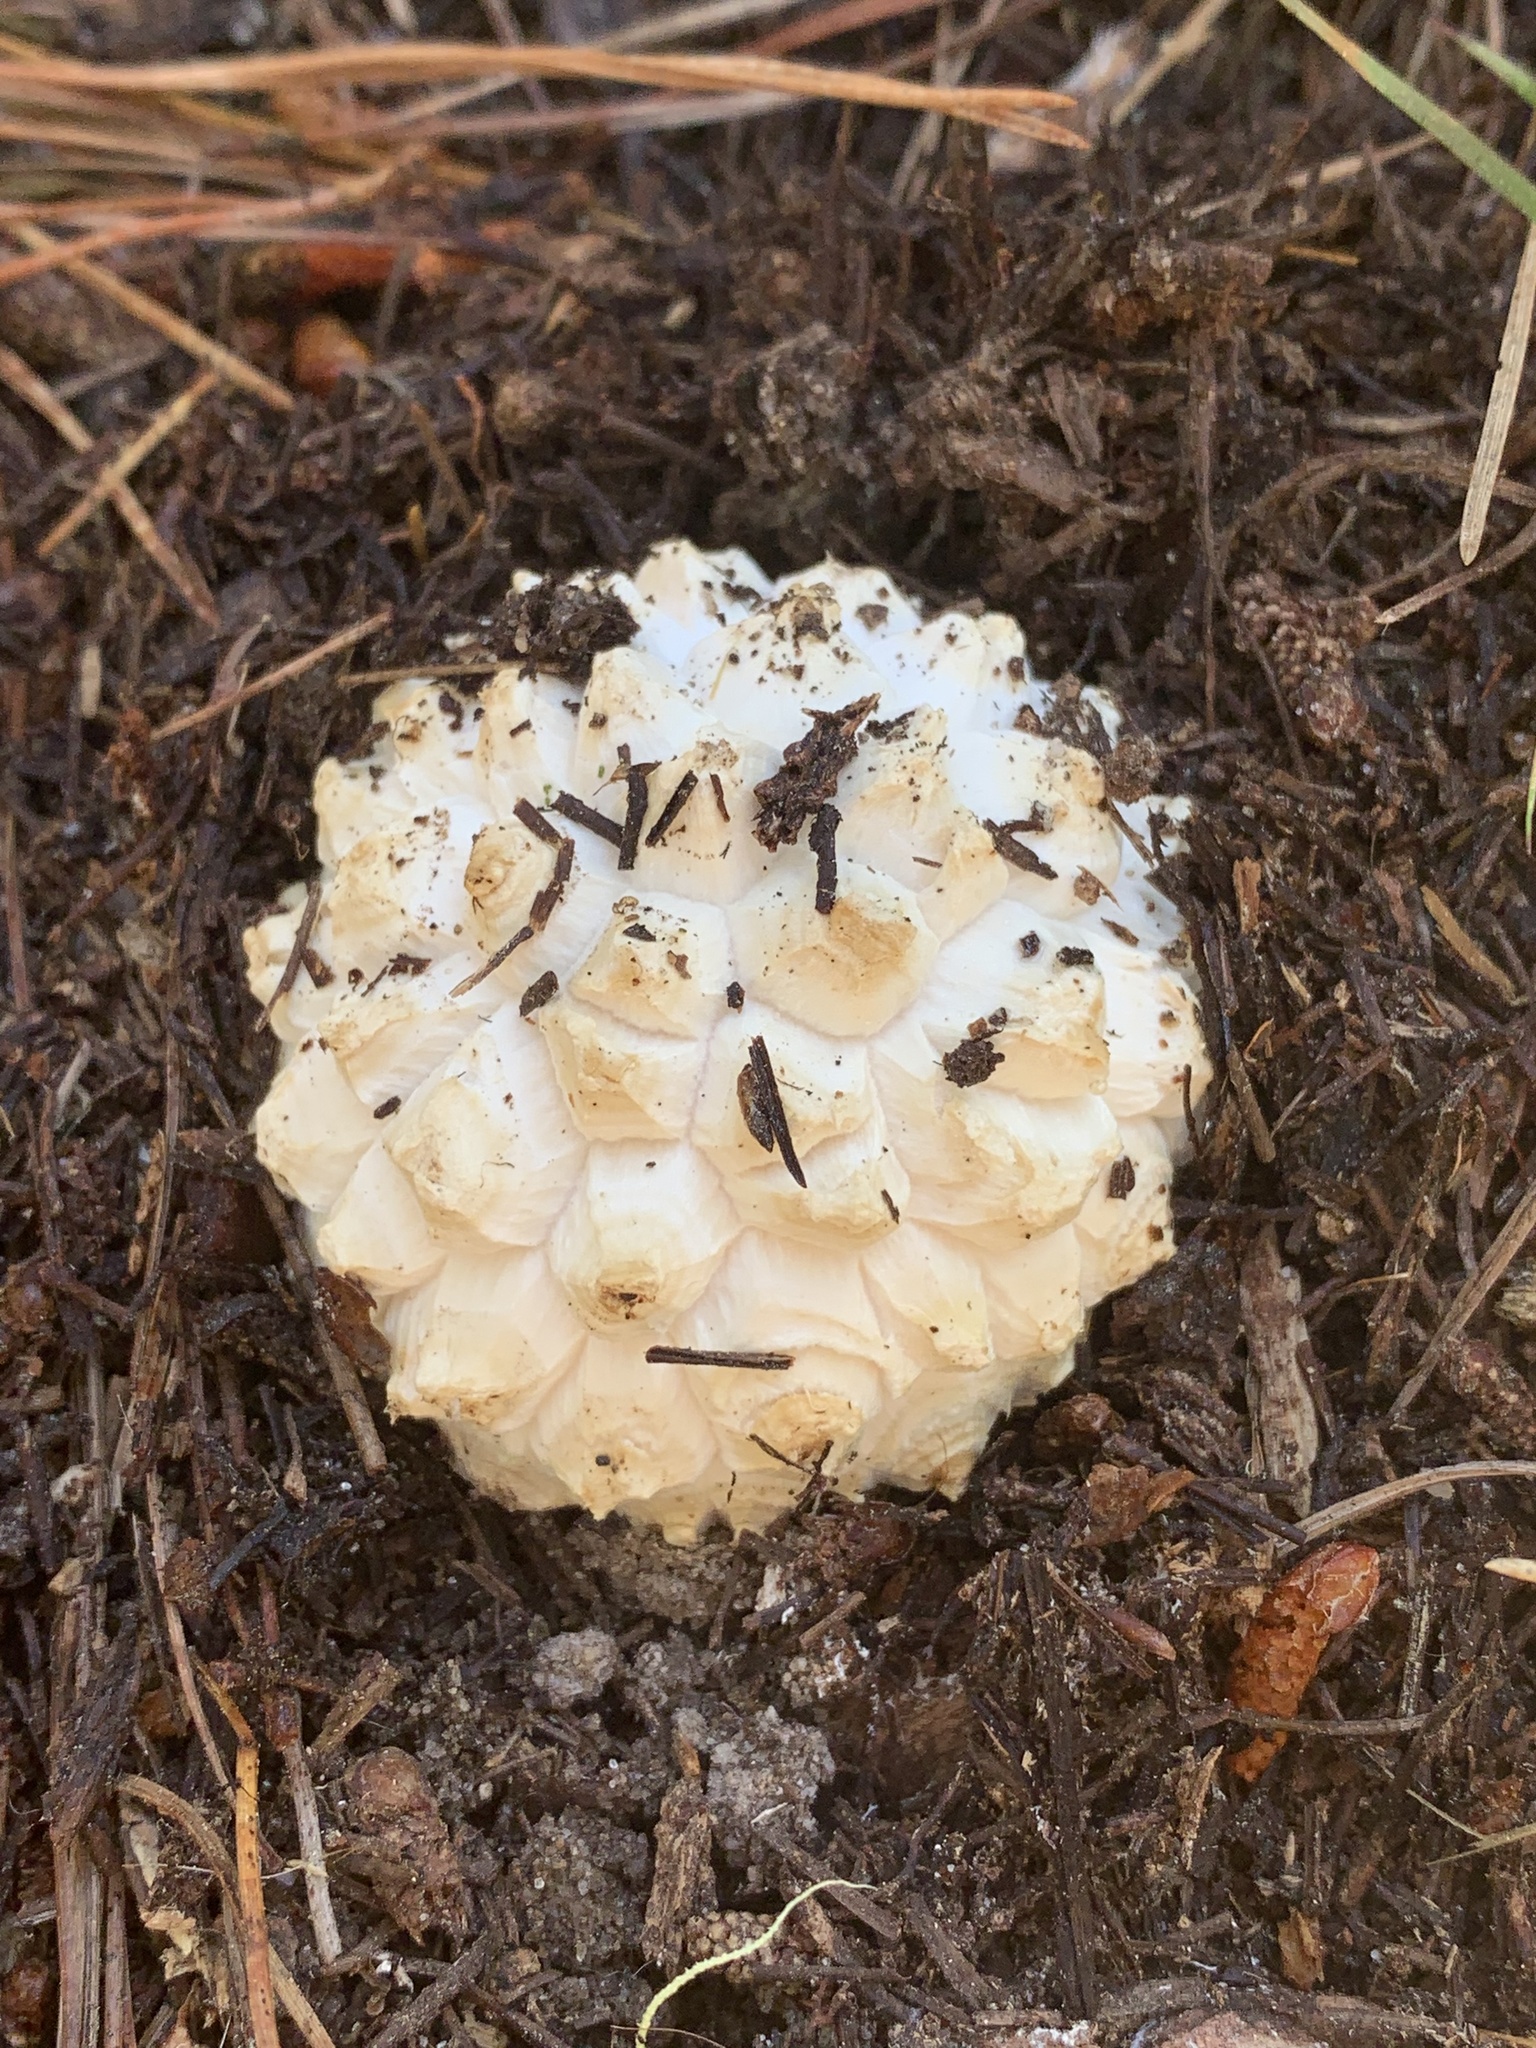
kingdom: Fungi
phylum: Basidiomycota
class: Agaricomycetes
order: Agaricales
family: Amanitaceae
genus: Amanita
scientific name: Amanita magniverrucata
